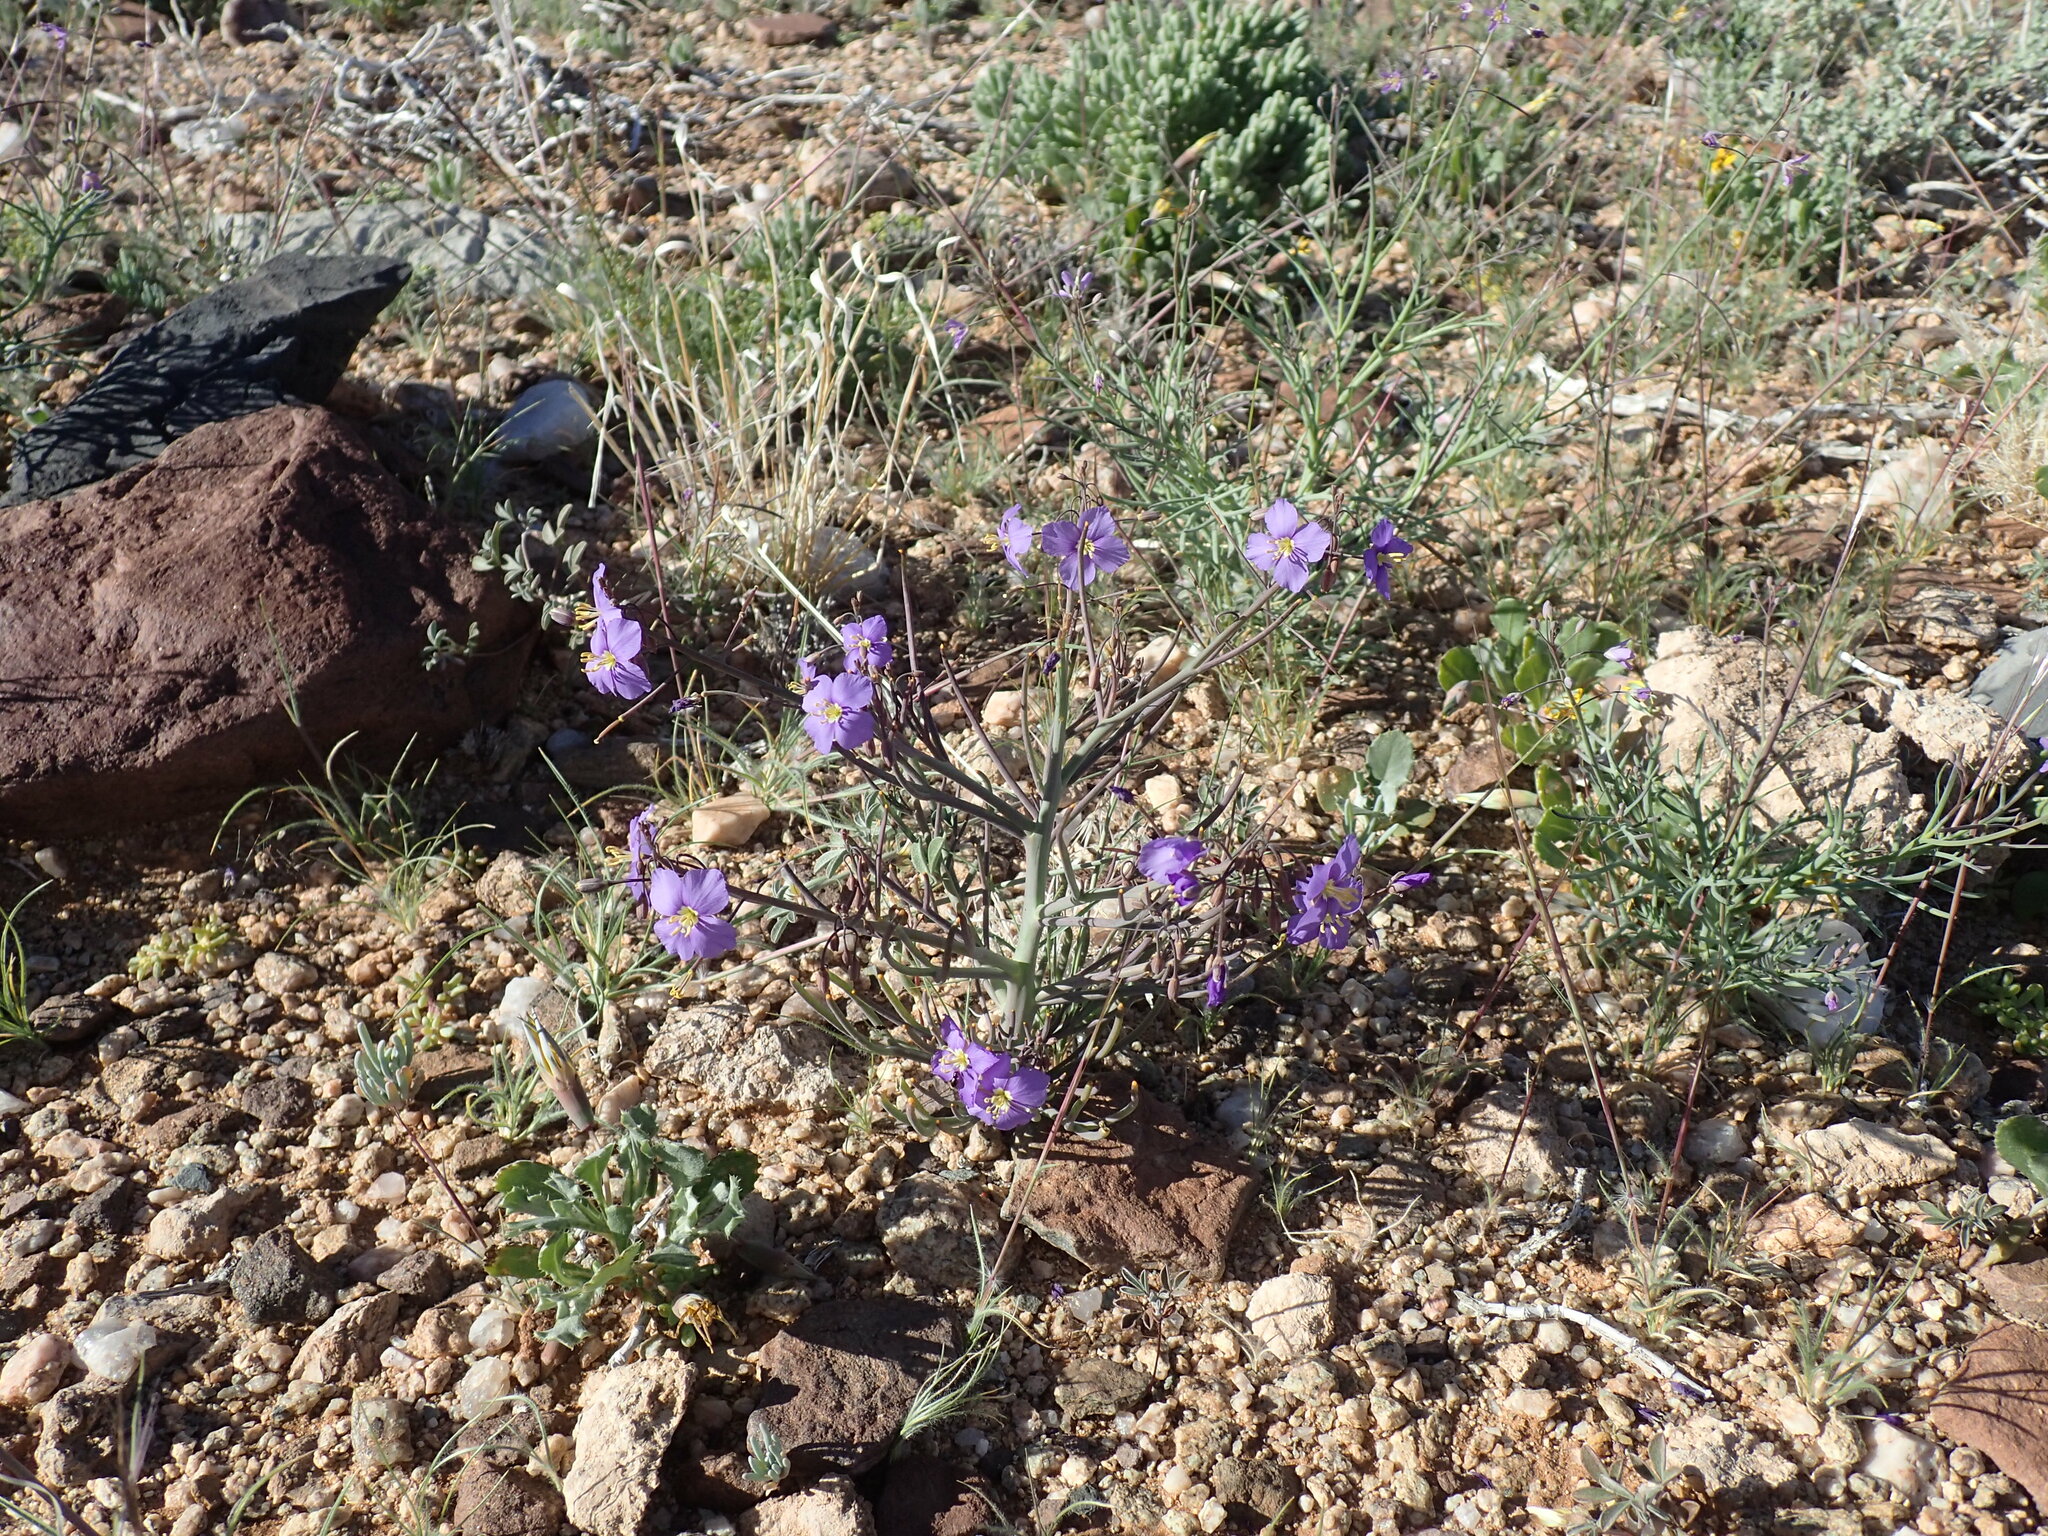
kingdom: Plantae
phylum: Tracheophyta
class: Magnoliopsida
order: Brassicales
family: Brassicaceae
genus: Heliophila
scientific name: Heliophila trifurca
